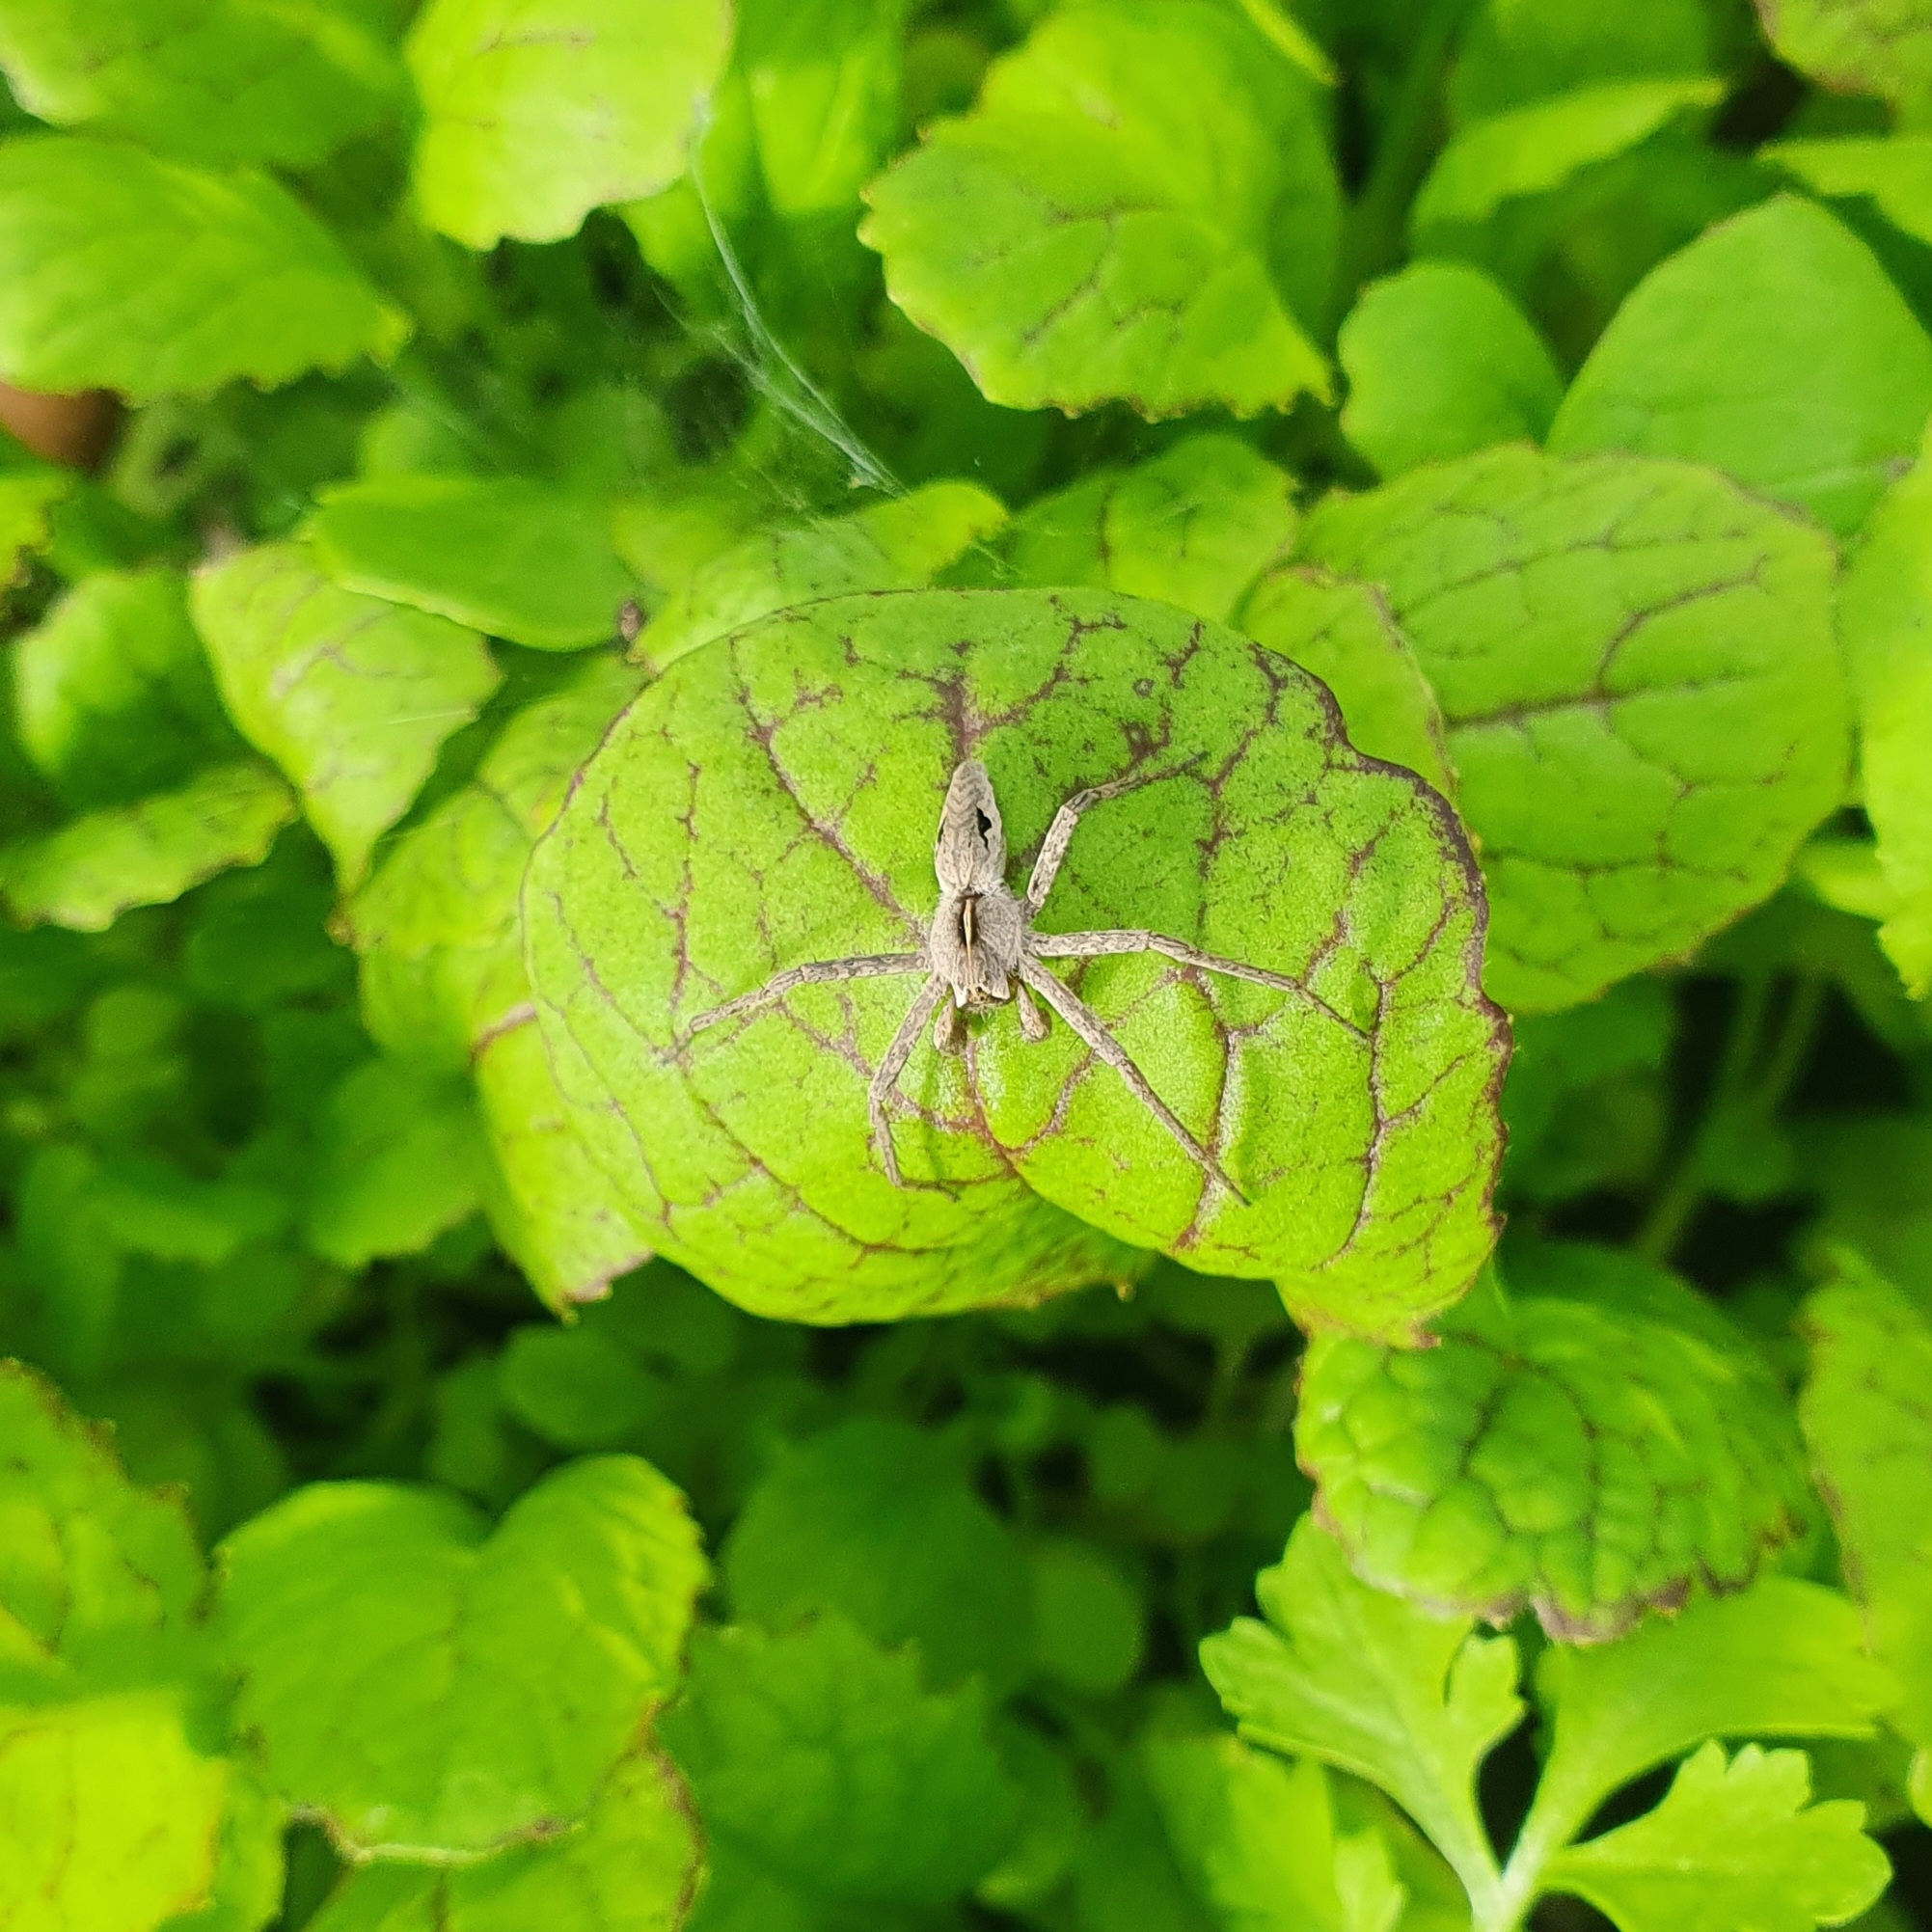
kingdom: Animalia
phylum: Arthropoda
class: Arachnida
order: Araneae
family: Pisauridae
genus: Pisaura
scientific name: Pisaura
